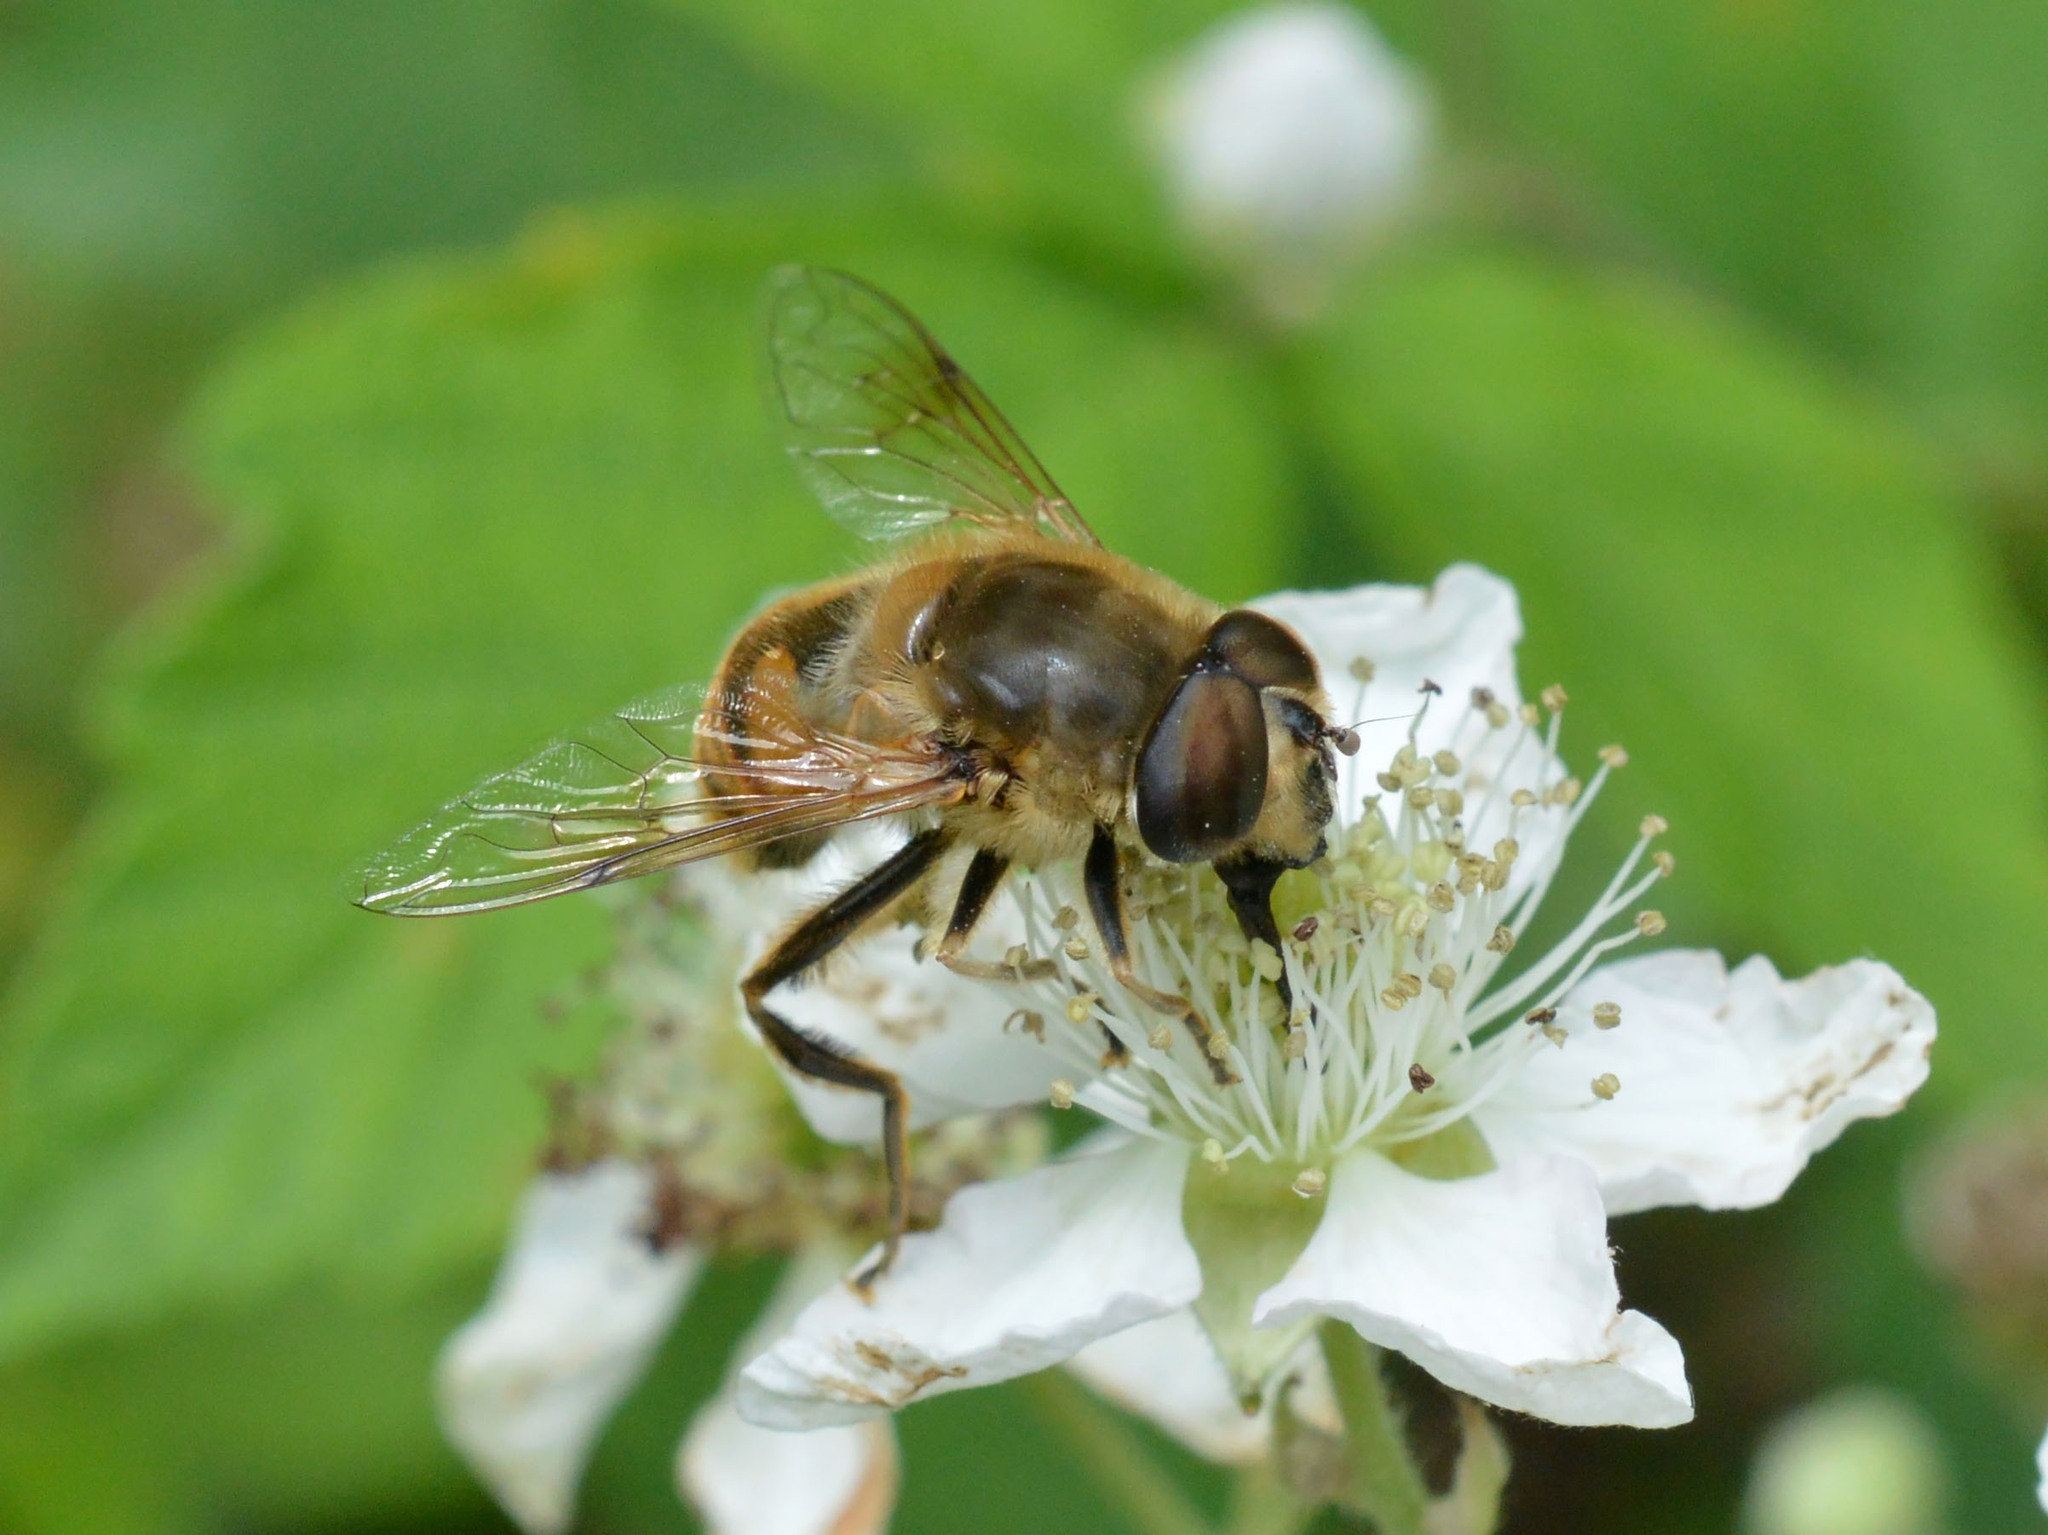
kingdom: Animalia
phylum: Arthropoda
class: Insecta
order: Diptera
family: Syrphidae
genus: Eristalis
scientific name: Eristalis tenax
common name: Drone fly
